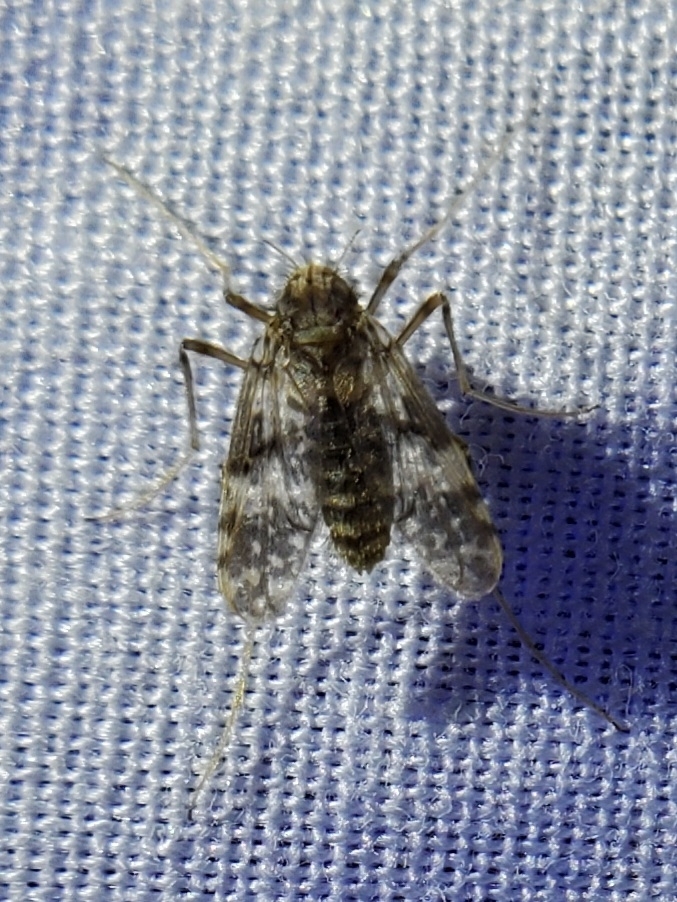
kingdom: Animalia
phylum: Arthropoda
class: Insecta
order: Diptera
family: Chironomidae
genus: Psectrotanypus
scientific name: Psectrotanypus dyari
